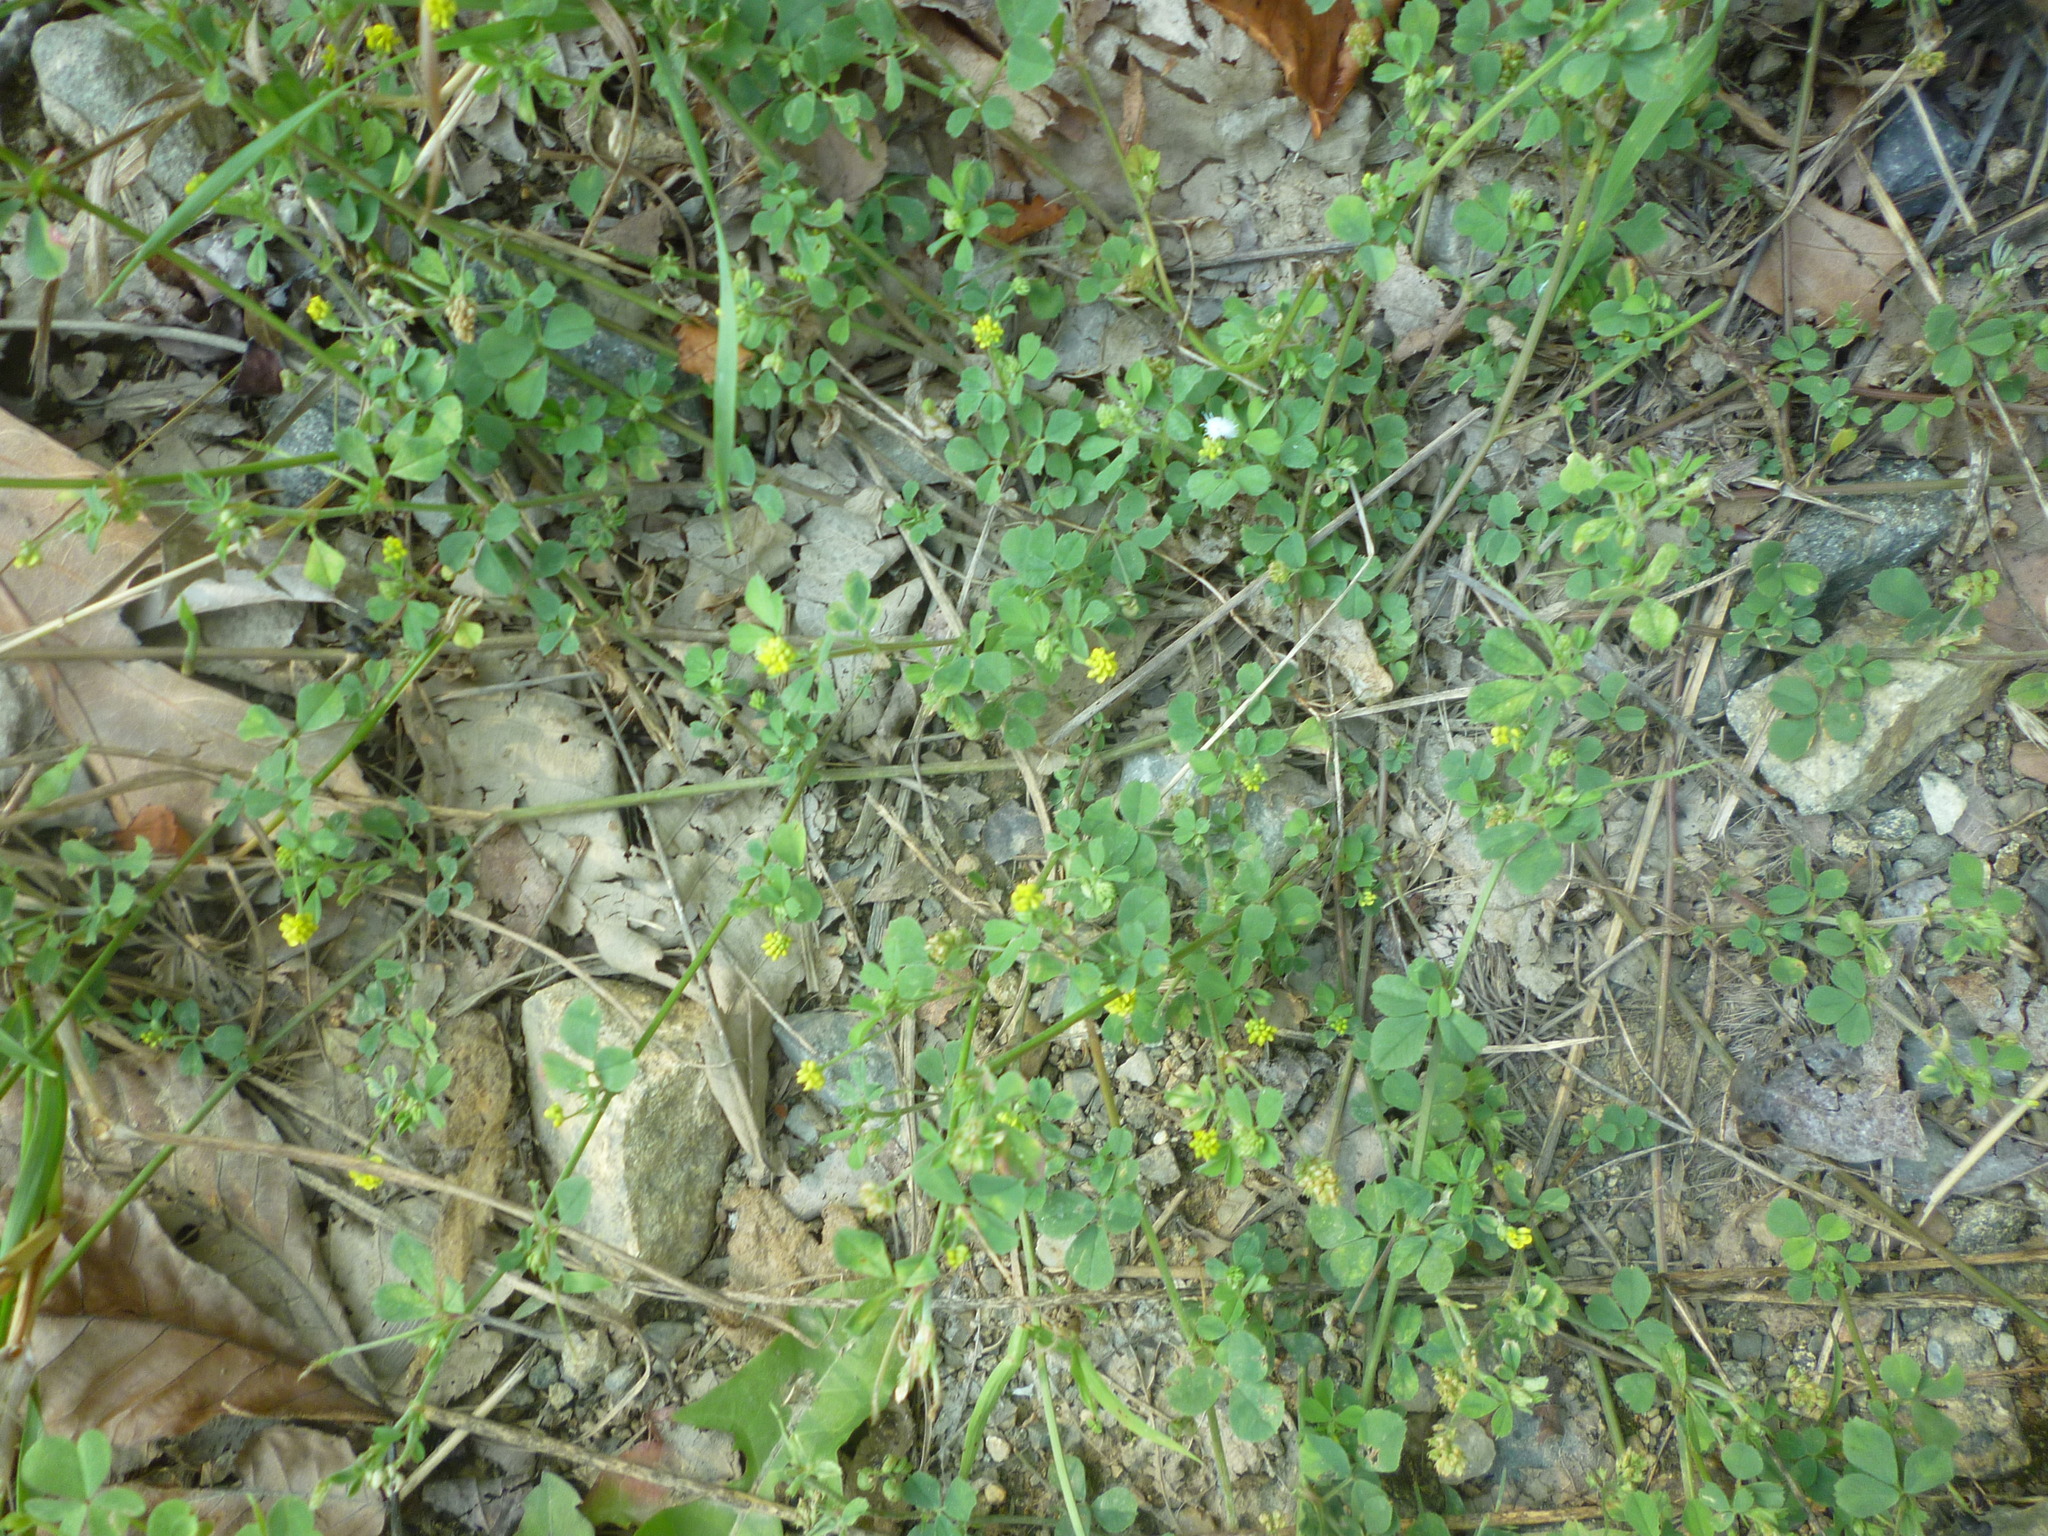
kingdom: Plantae
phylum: Tracheophyta
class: Magnoliopsida
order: Fabales
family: Fabaceae
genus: Medicago
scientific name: Medicago lupulina
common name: Black medick
